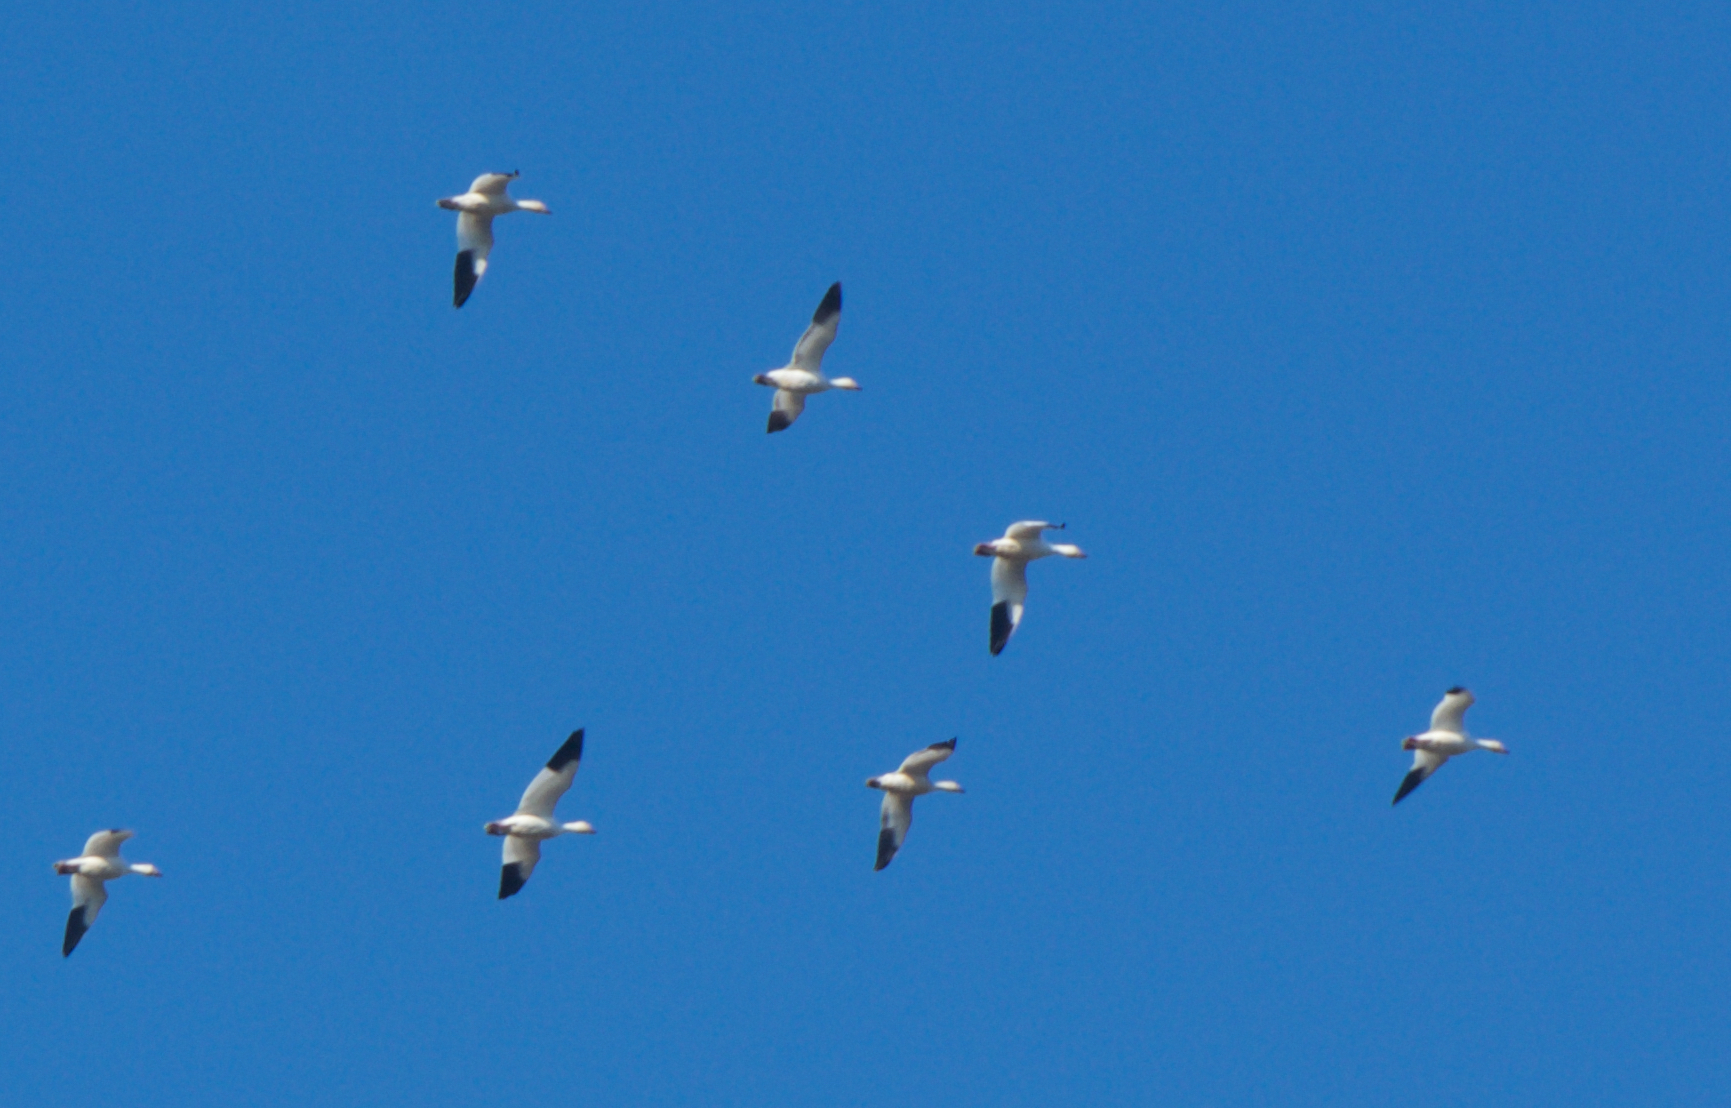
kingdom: Animalia
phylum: Chordata
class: Aves
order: Anseriformes
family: Anatidae
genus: Anser
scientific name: Anser caerulescens
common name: Snow goose
